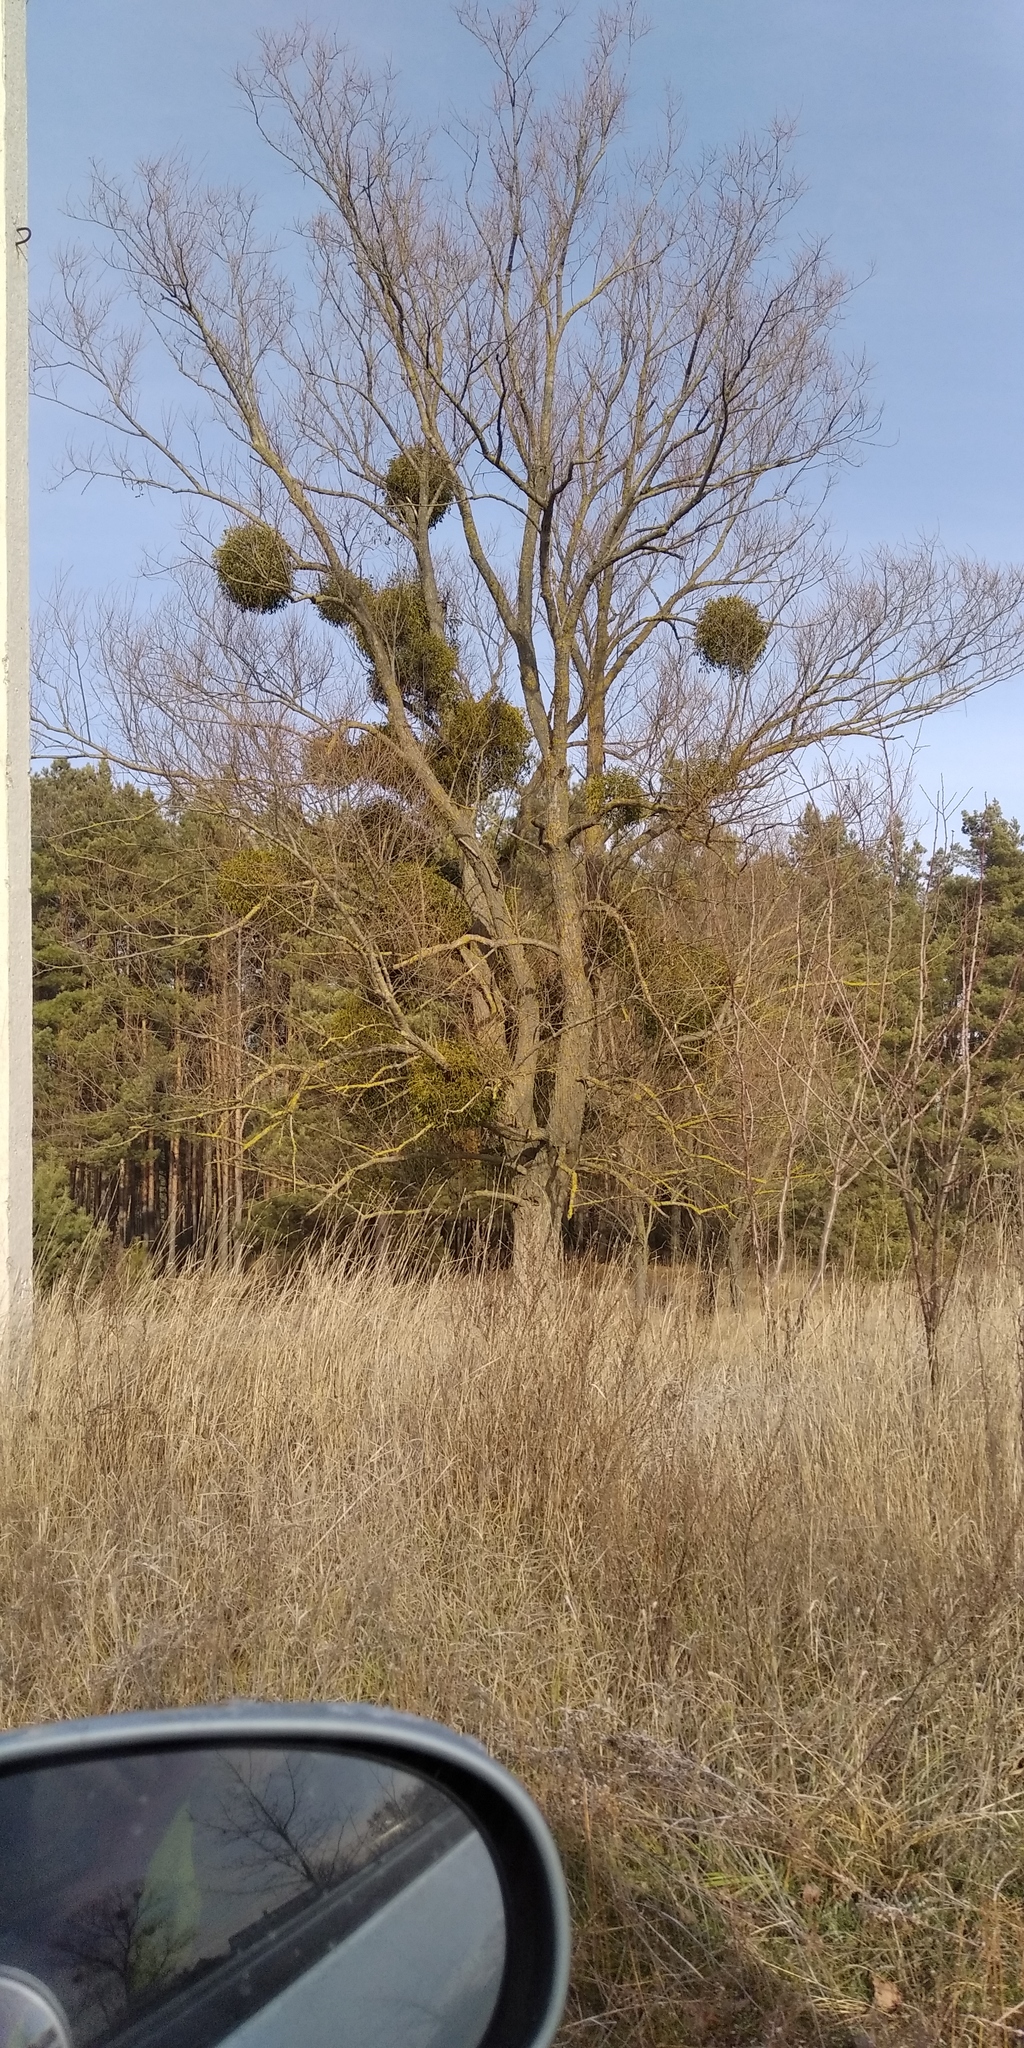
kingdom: Plantae
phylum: Tracheophyta
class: Magnoliopsida
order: Santalales
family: Viscaceae
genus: Viscum
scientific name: Viscum album
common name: Mistletoe
